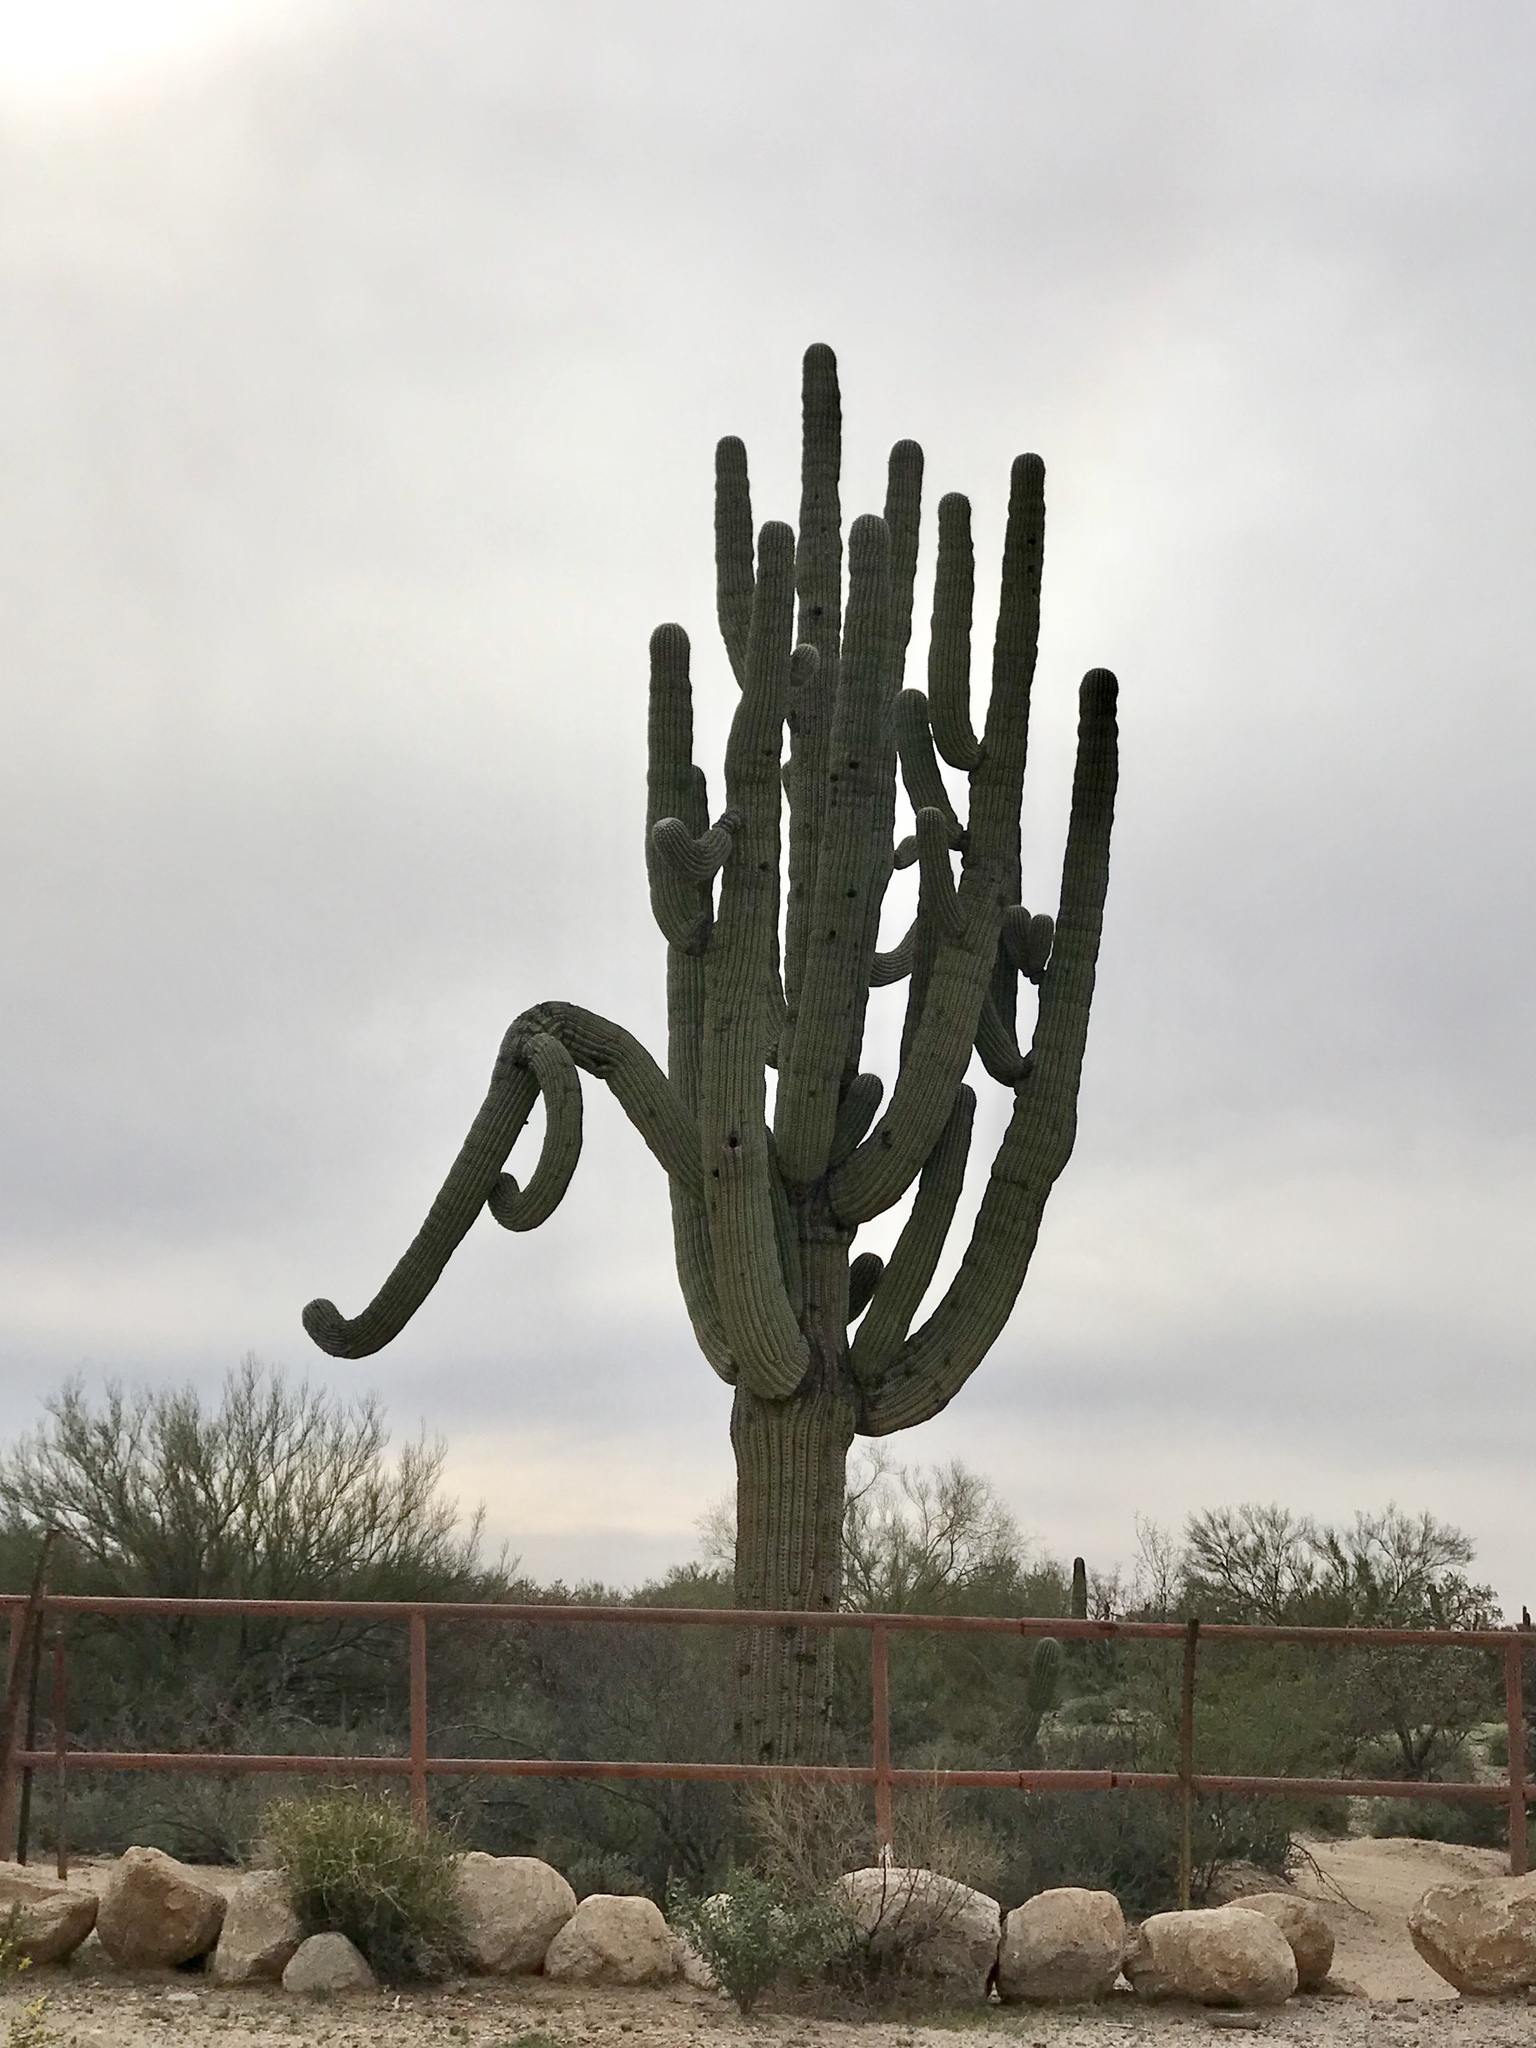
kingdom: Plantae
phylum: Tracheophyta
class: Magnoliopsida
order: Caryophyllales
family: Cactaceae
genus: Carnegiea
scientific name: Carnegiea gigantea
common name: Saguaro
